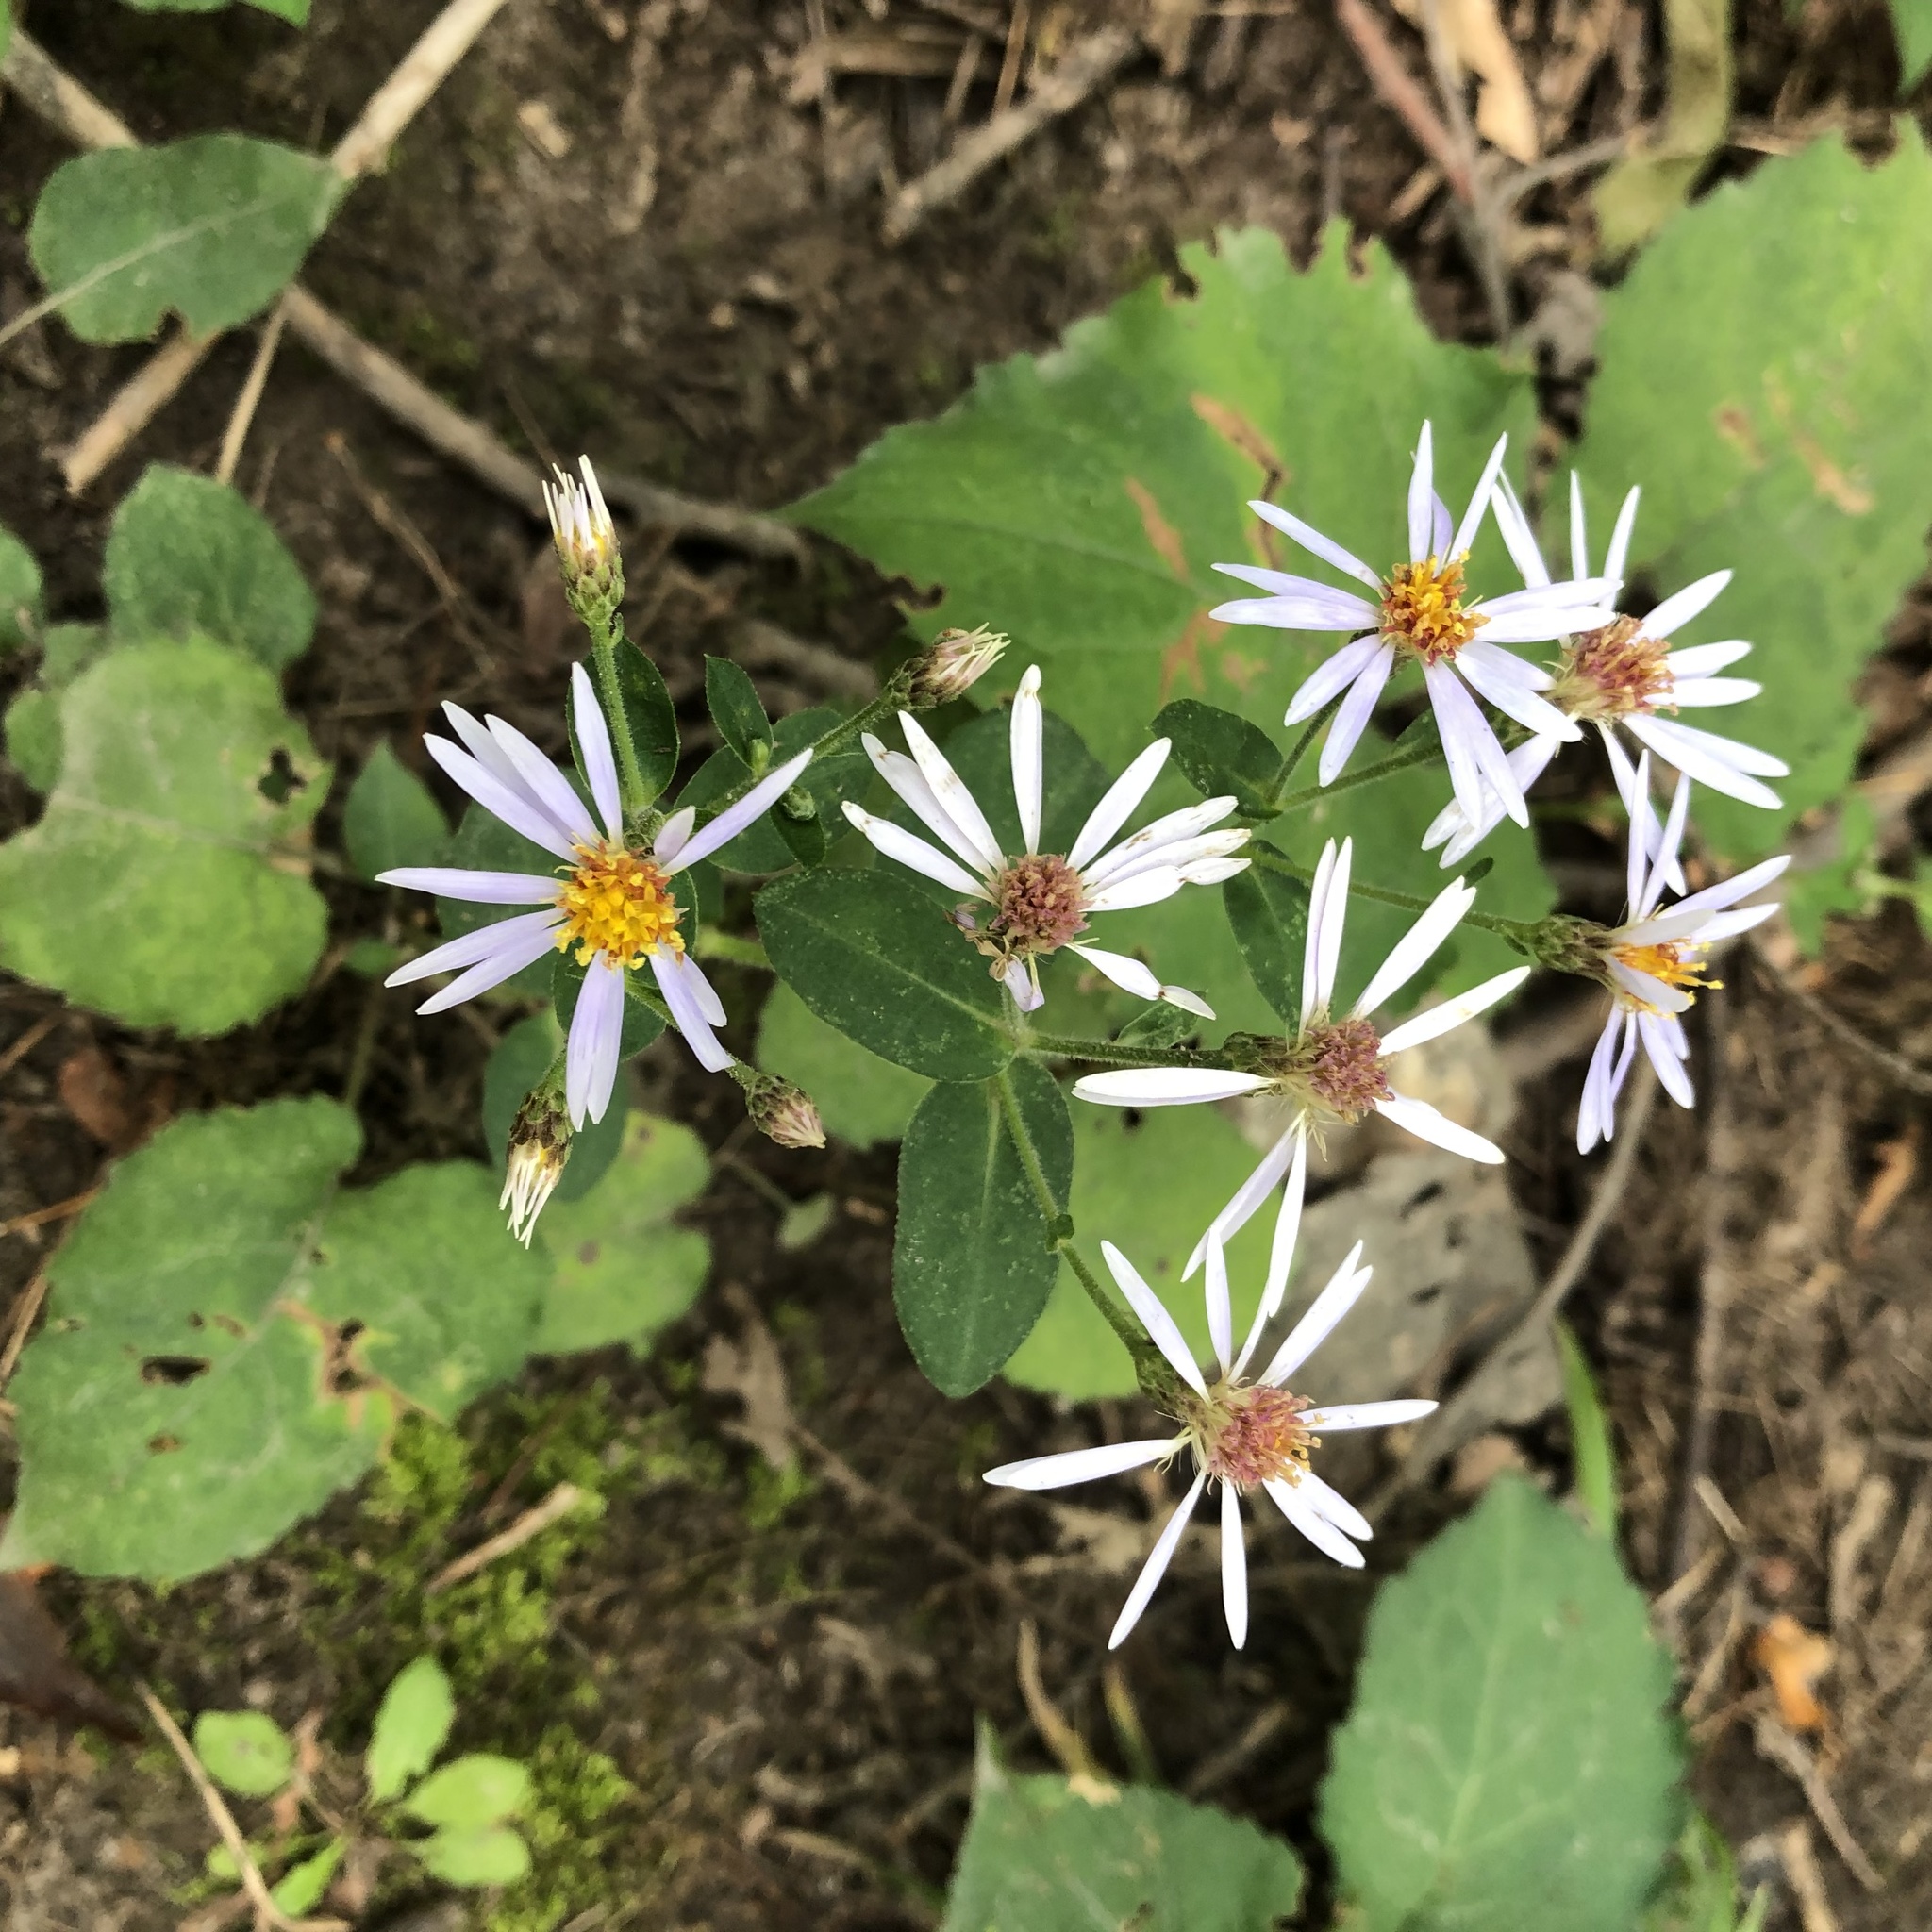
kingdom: Plantae
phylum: Tracheophyta
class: Magnoliopsida
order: Asterales
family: Asteraceae
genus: Eurybia
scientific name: Eurybia macrophylla
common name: Big-leaved aster
